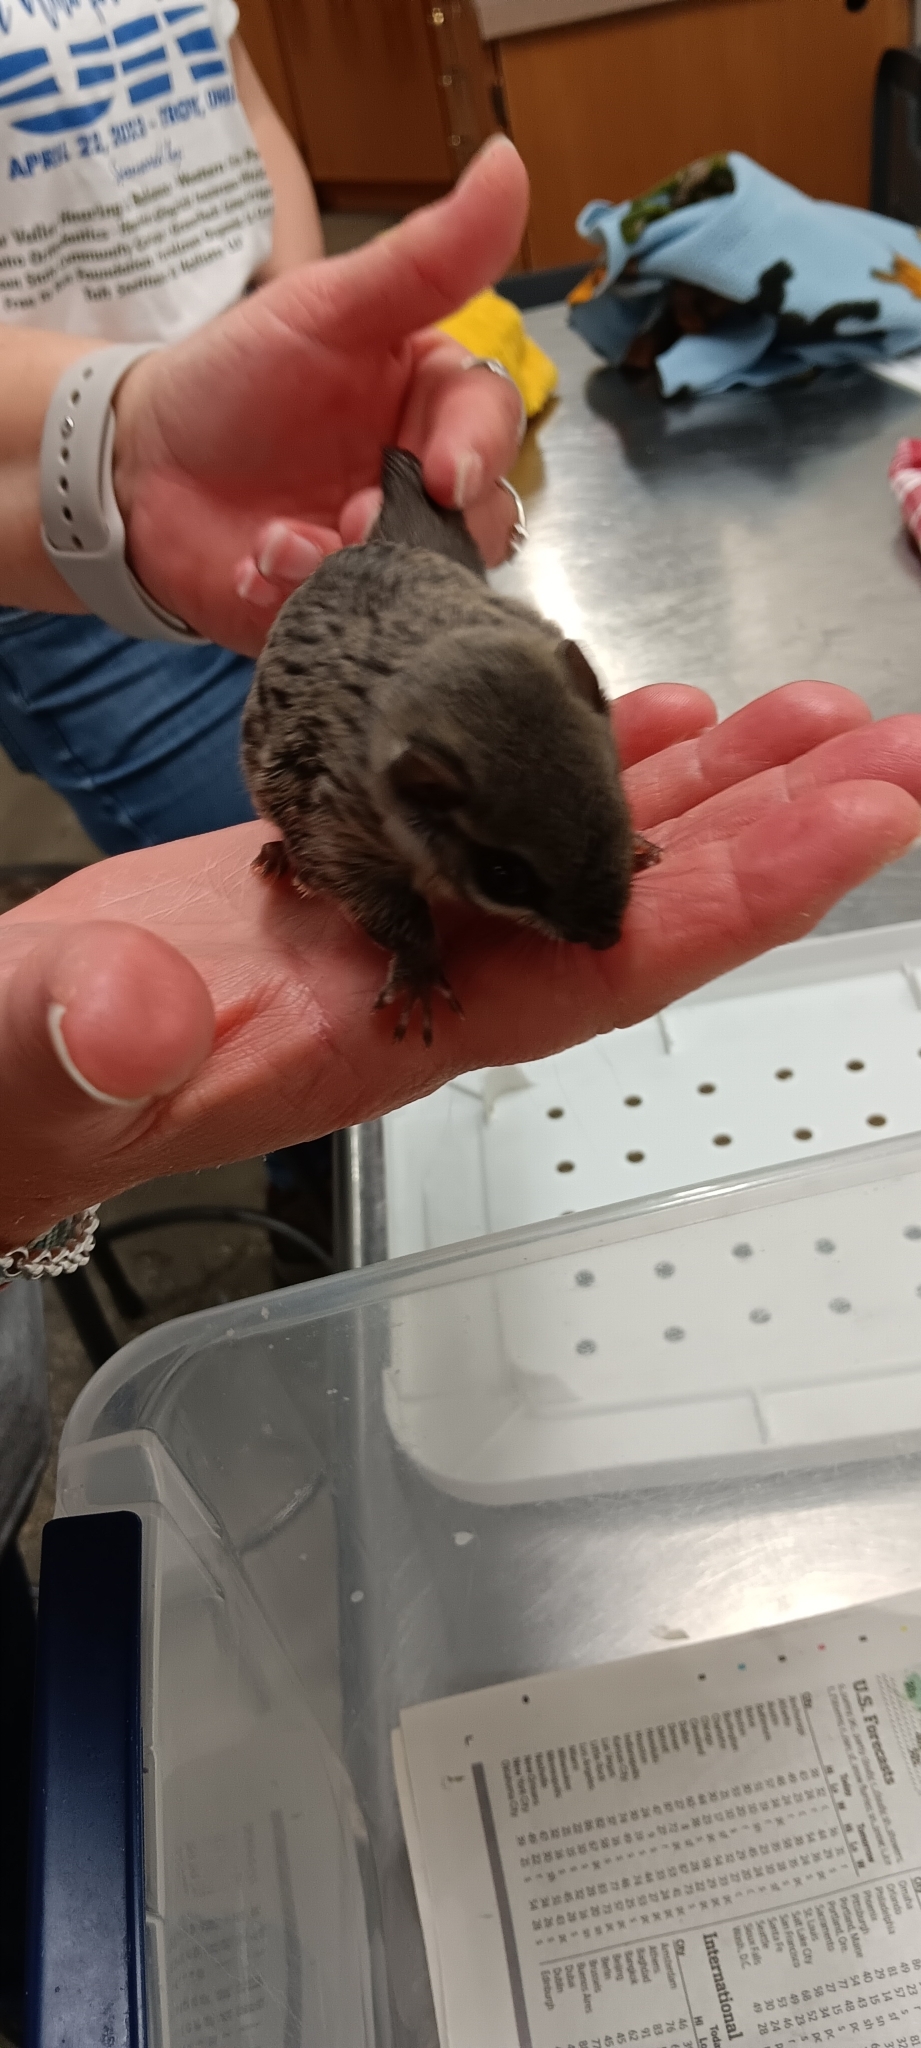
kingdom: Animalia
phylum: Chordata
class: Mammalia
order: Rodentia
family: Sciuridae
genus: Glaucomys
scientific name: Glaucomys volans
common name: Southern flying squirrel
